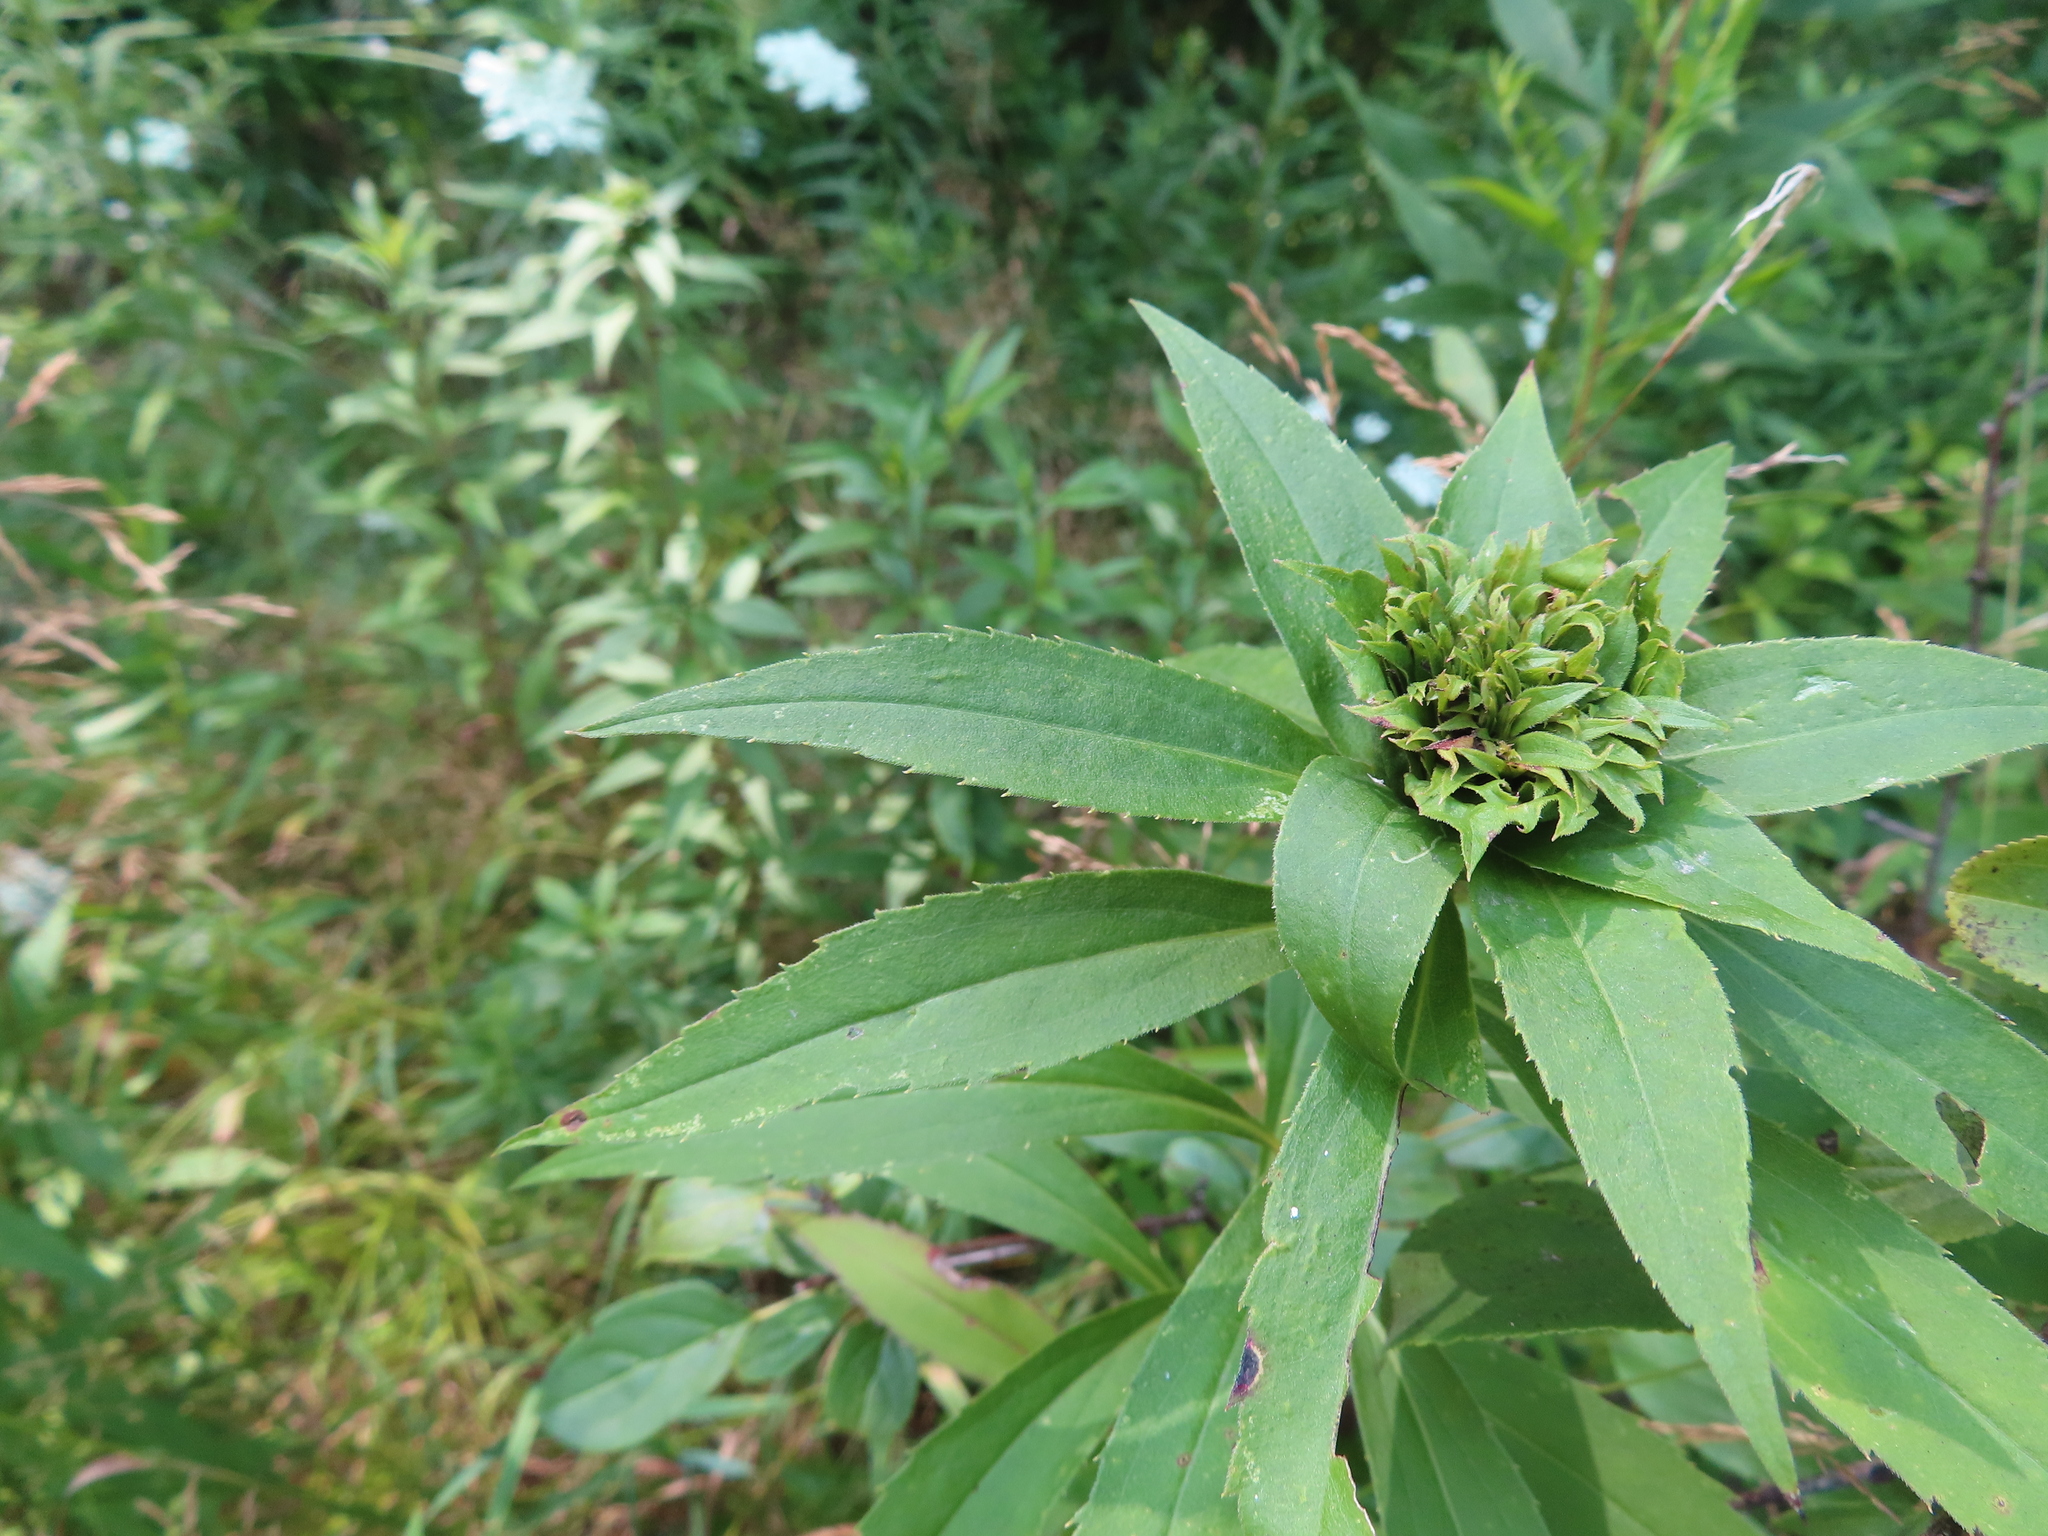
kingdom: Animalia
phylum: Arthropoda
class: Insecta
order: Diptera
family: Cecidomyiidae
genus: Rhopalomyia
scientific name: Rhopalomyia capitata
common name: Giant goldenrod bunch gall midge
